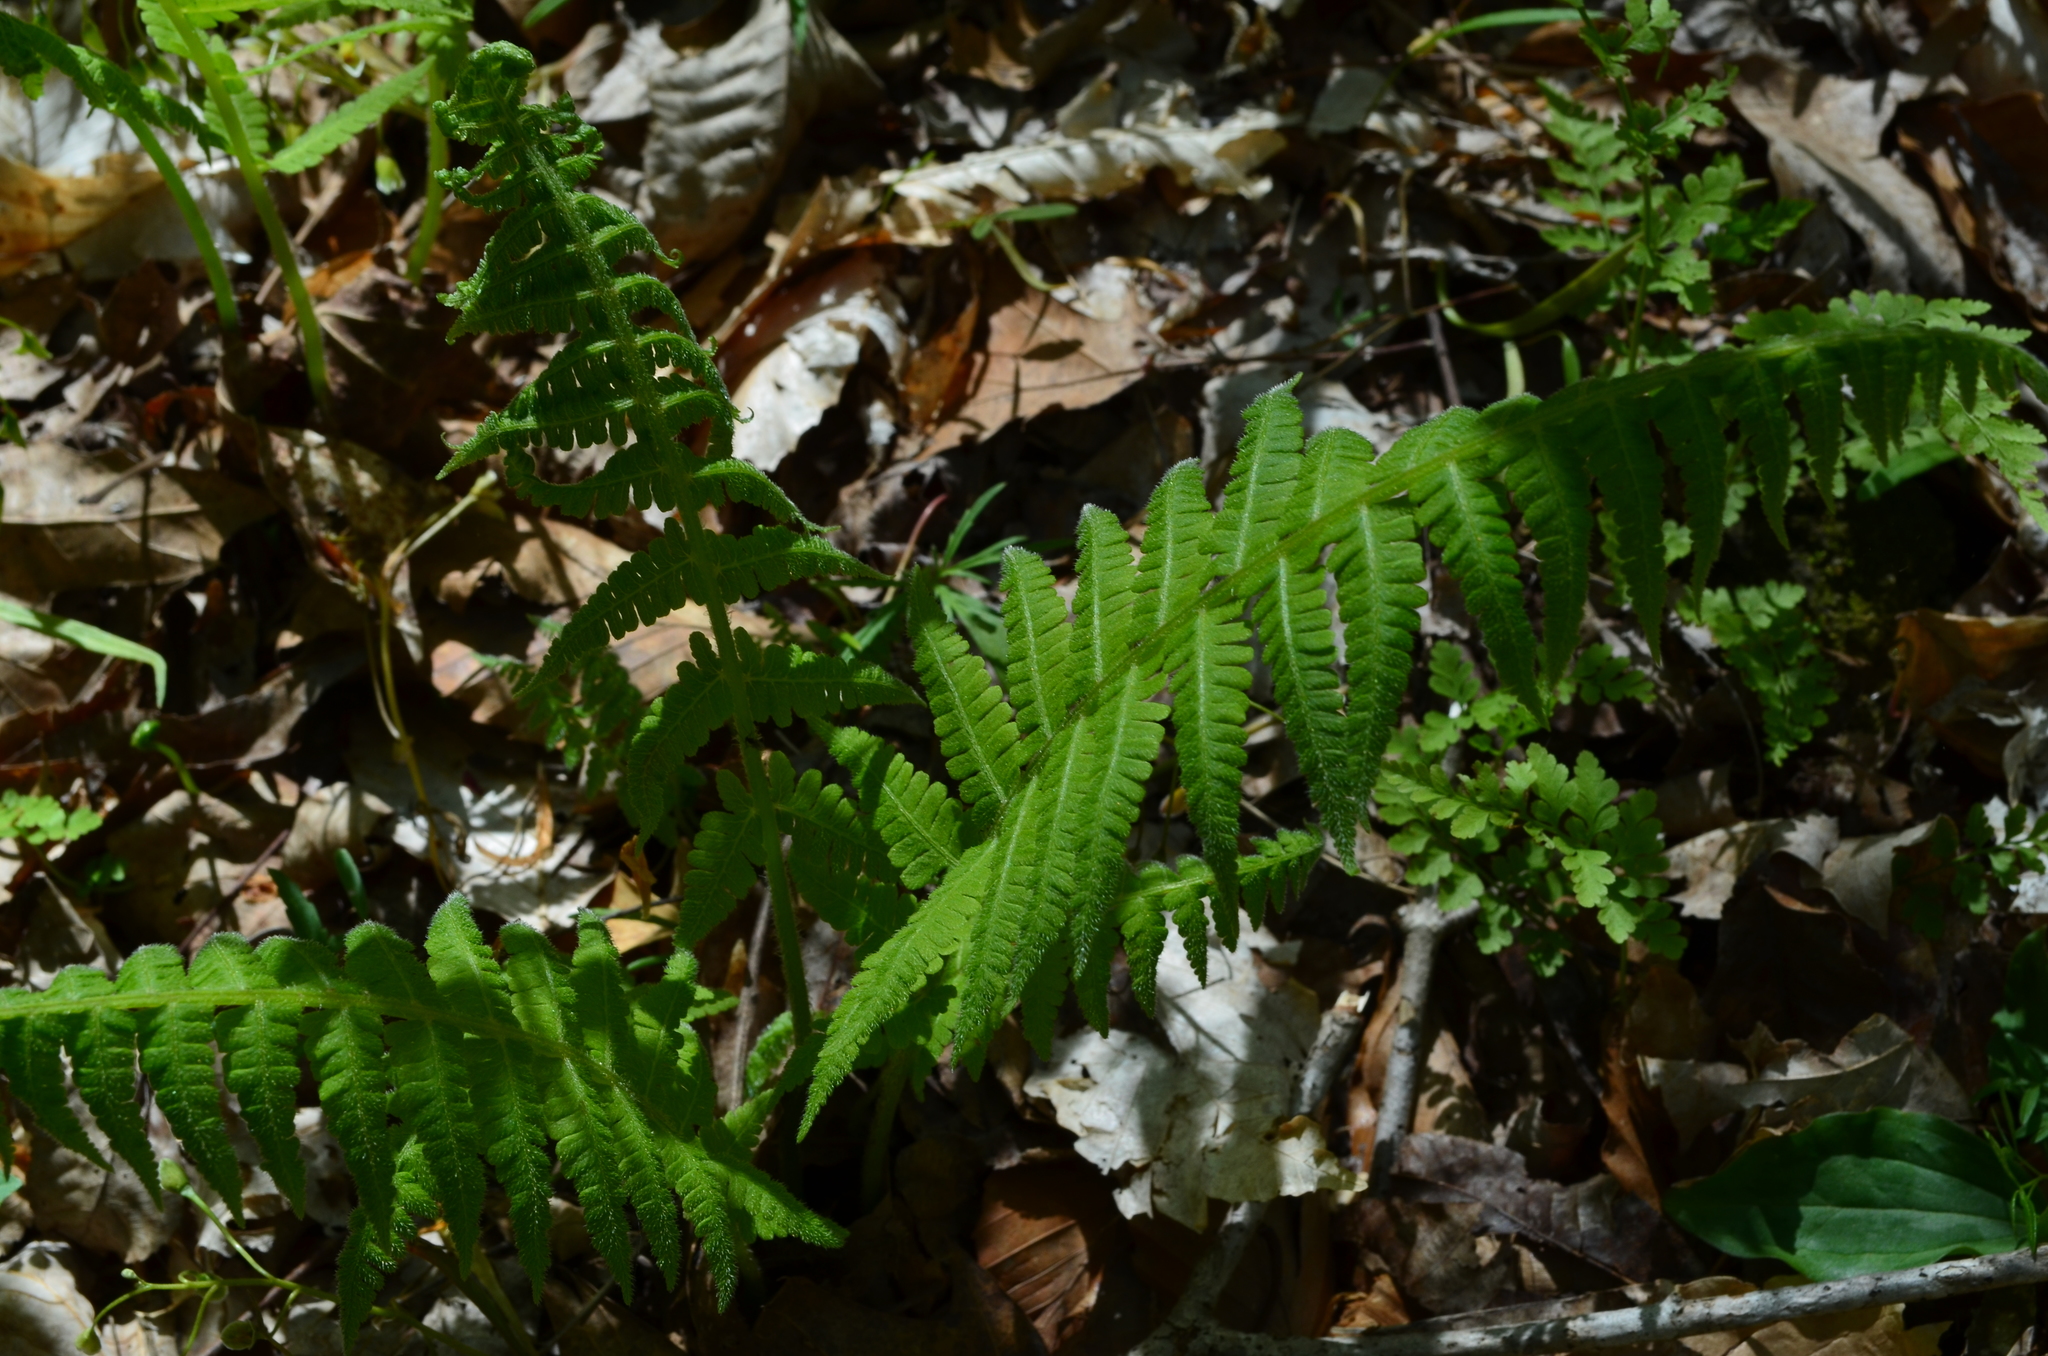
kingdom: Plantae
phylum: Tracheophyta
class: Polypodiopsida
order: Polypodiales
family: Athyriaceae
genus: Deparia
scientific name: Deparia acrostichoides
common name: Silver false spleenwort
